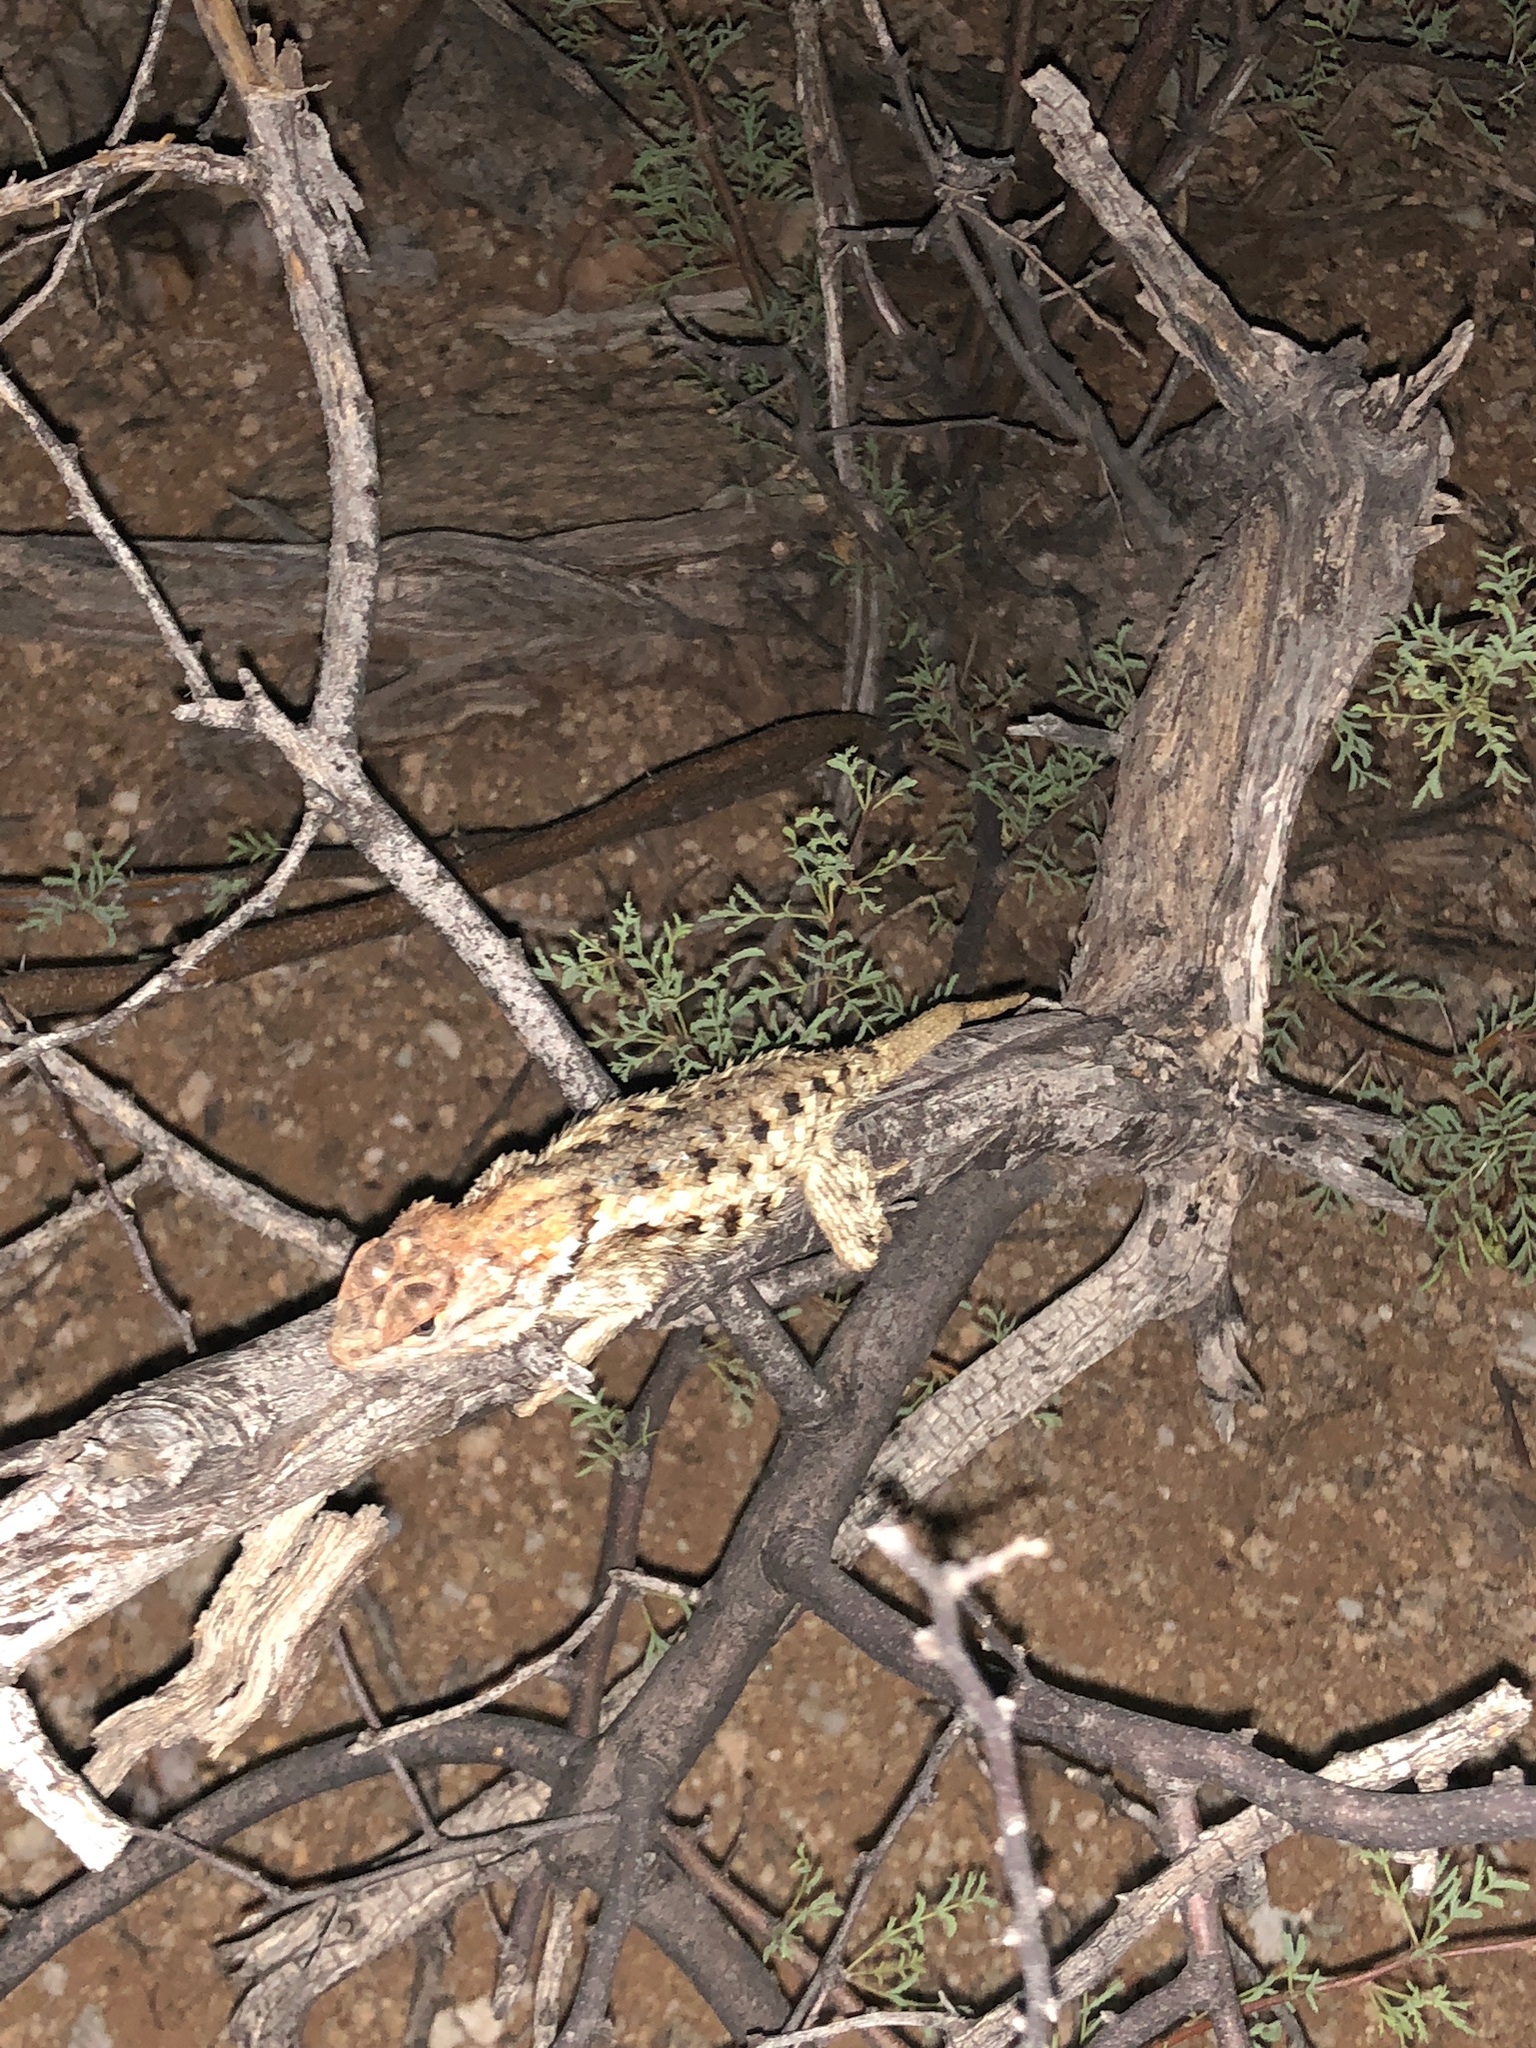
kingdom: Animalia
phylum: Chordata
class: Squamata
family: Phrynosomatidae
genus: Sceloporus
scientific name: Sceloporus magister
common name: Desert spiny lizard
